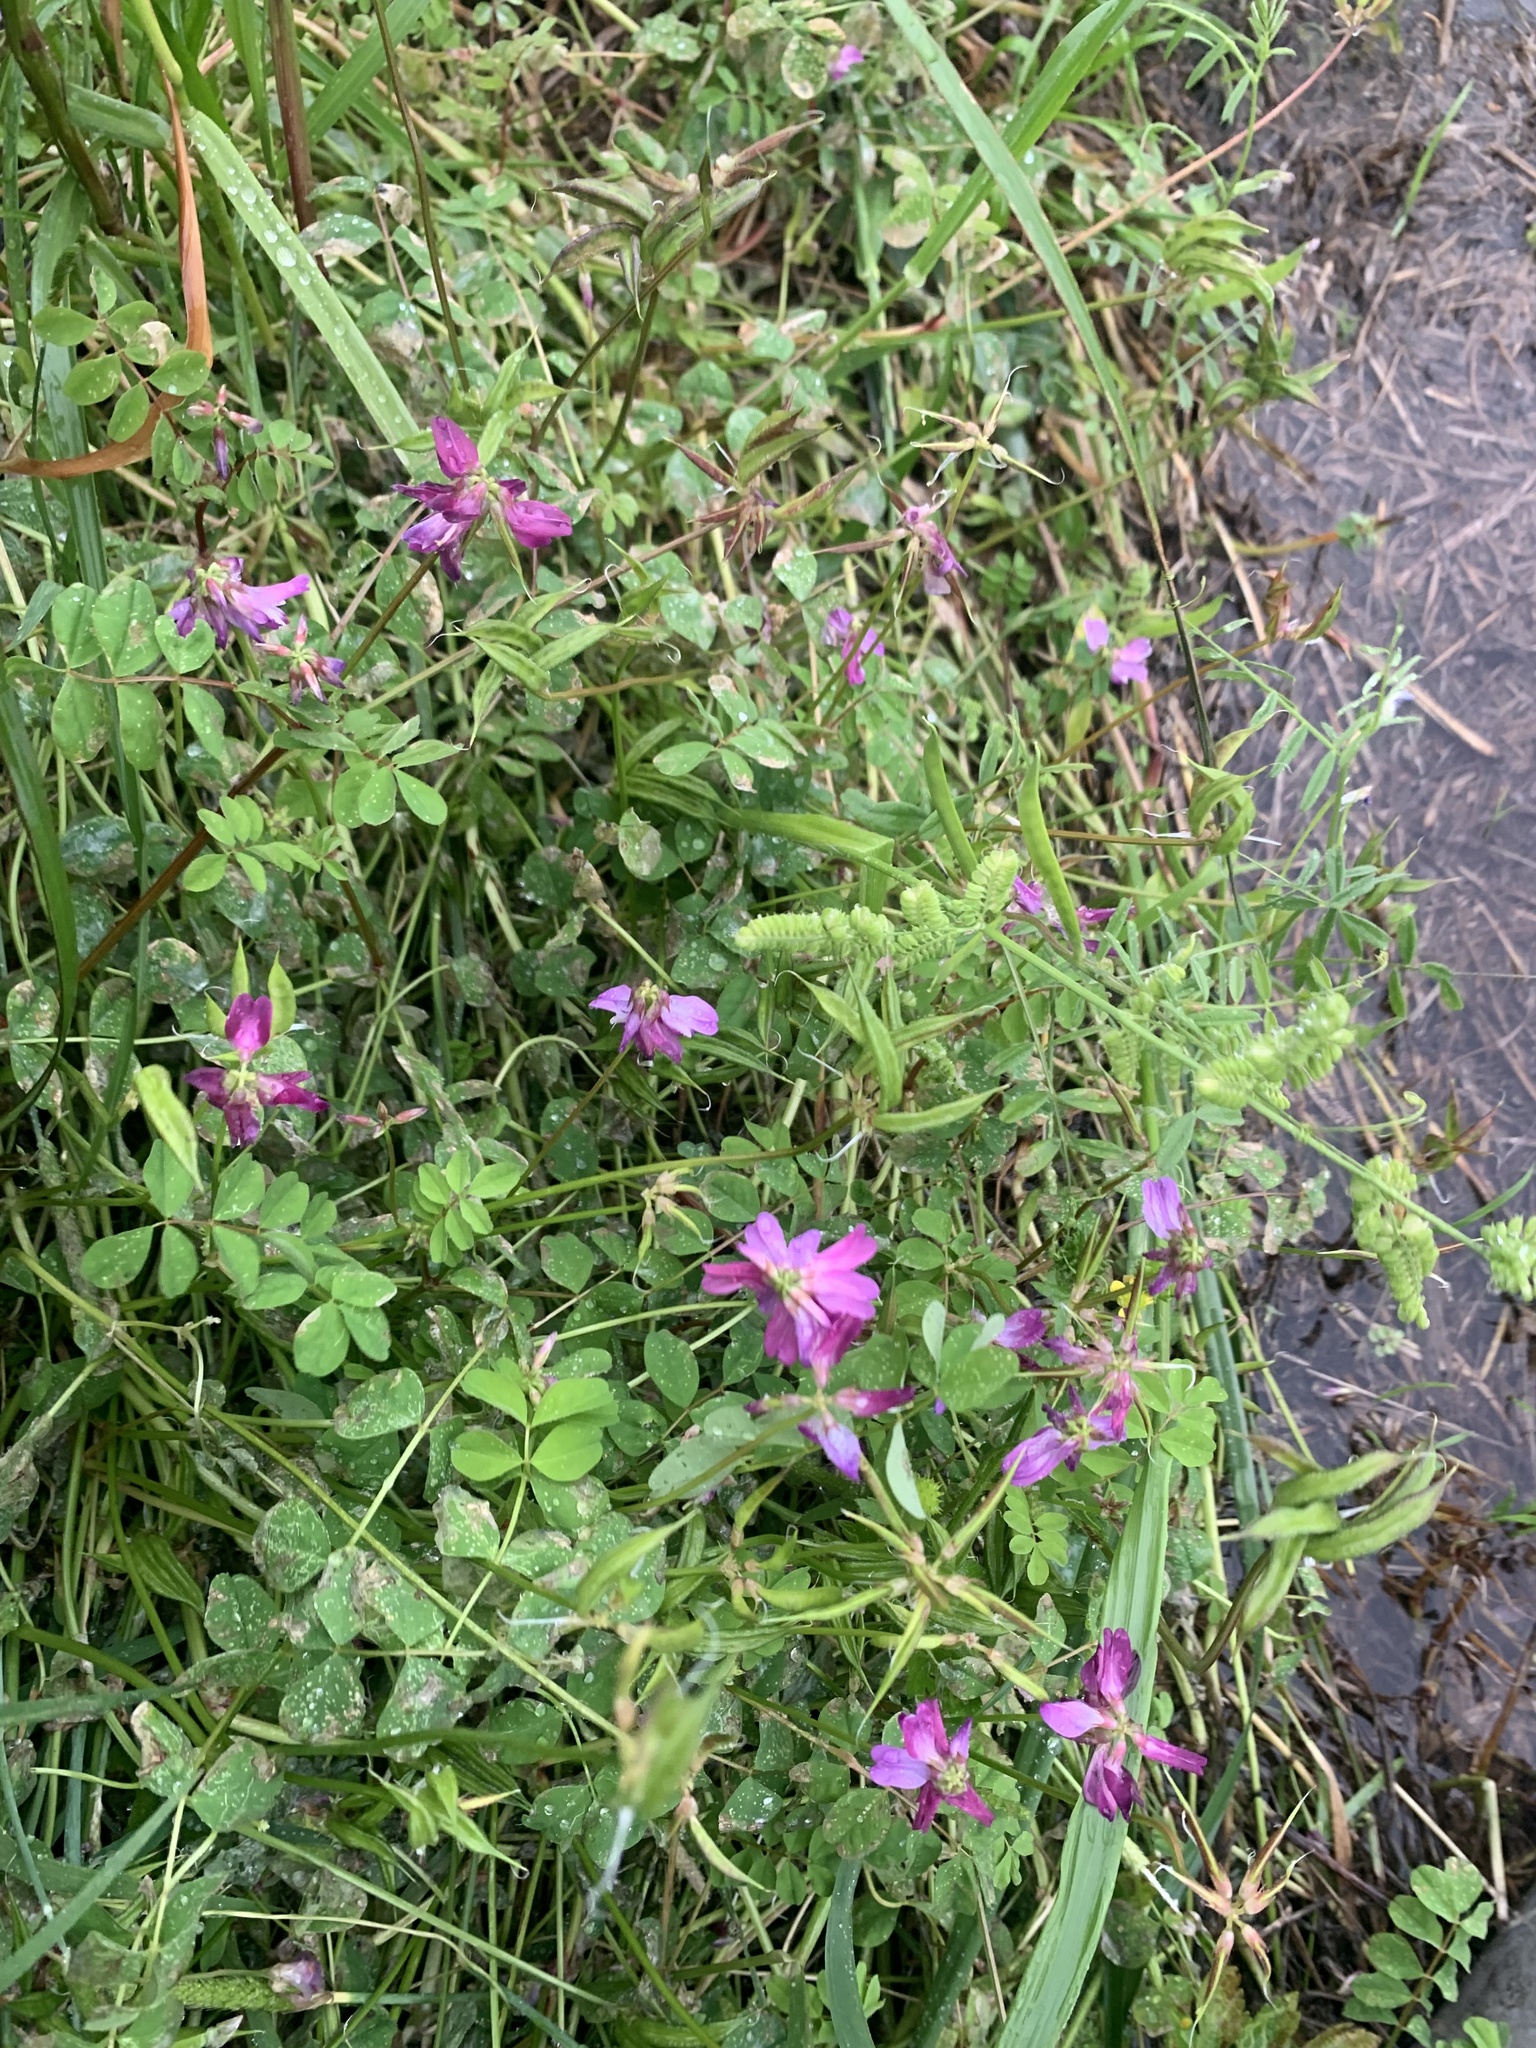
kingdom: Plantae
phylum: Tracheophyta
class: Magnoliopsida
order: Fabales
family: Fabaceae
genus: Astragalus
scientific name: Astragalus sinicus
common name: Chinese milk-vetch
